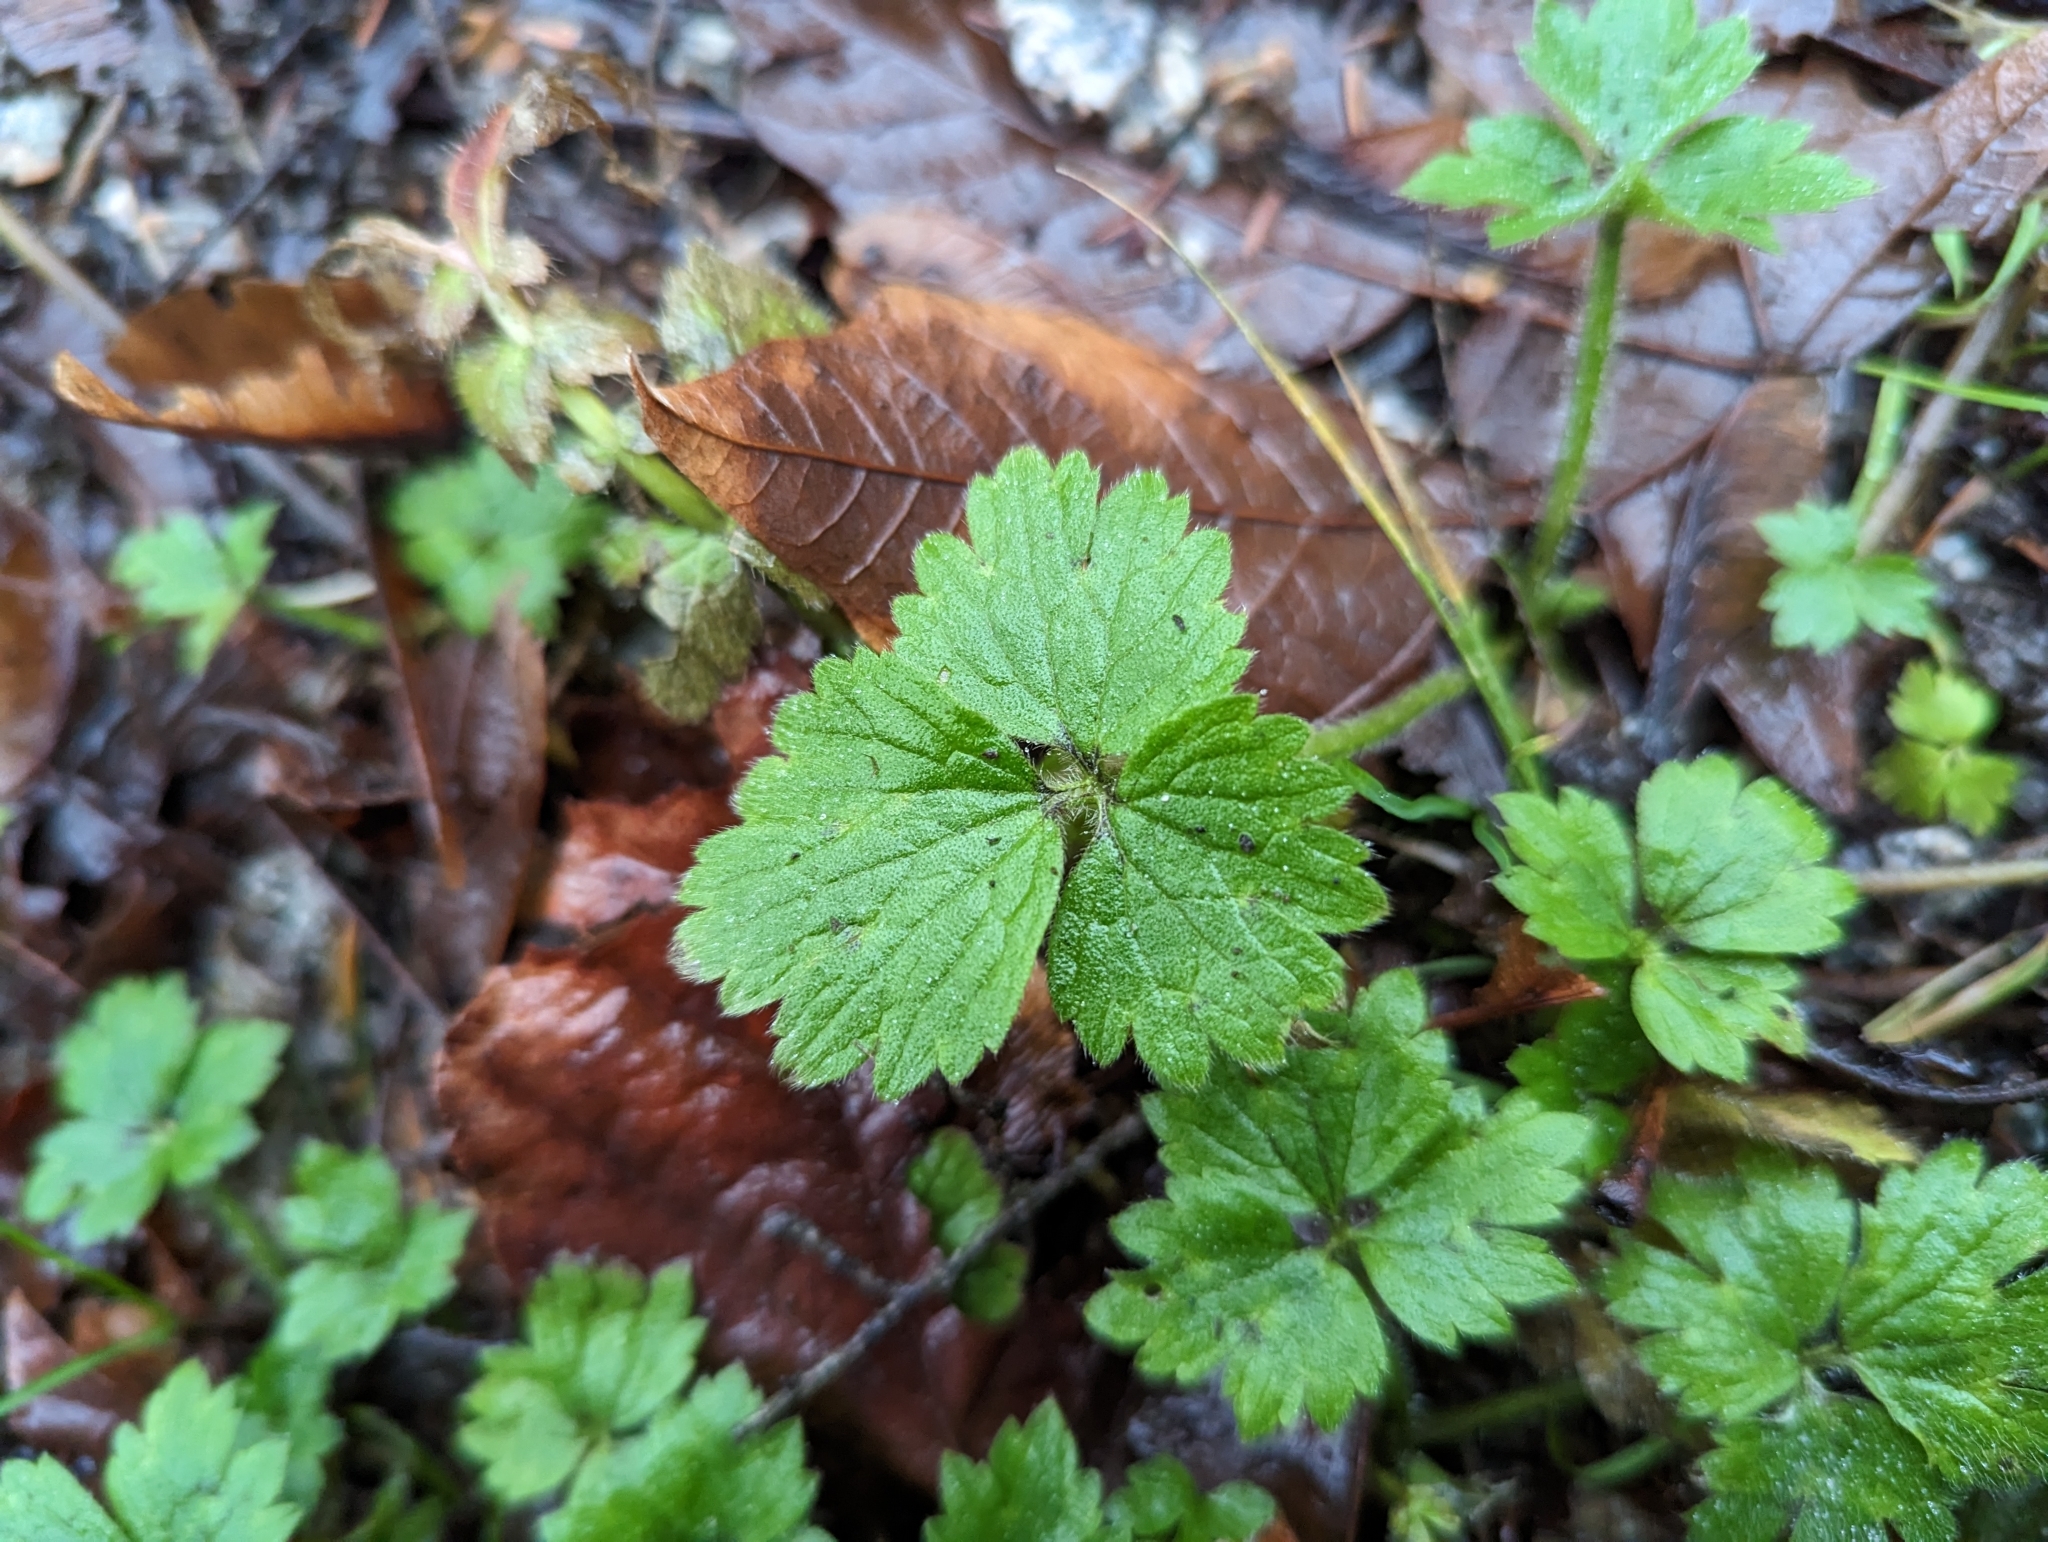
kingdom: Plantae
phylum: Tracheophyta
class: Magnoliopsida
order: Ranunculales
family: Ranunculaceae
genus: Ranunculus
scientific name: Ranunculus repens
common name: Creeping buttercup
